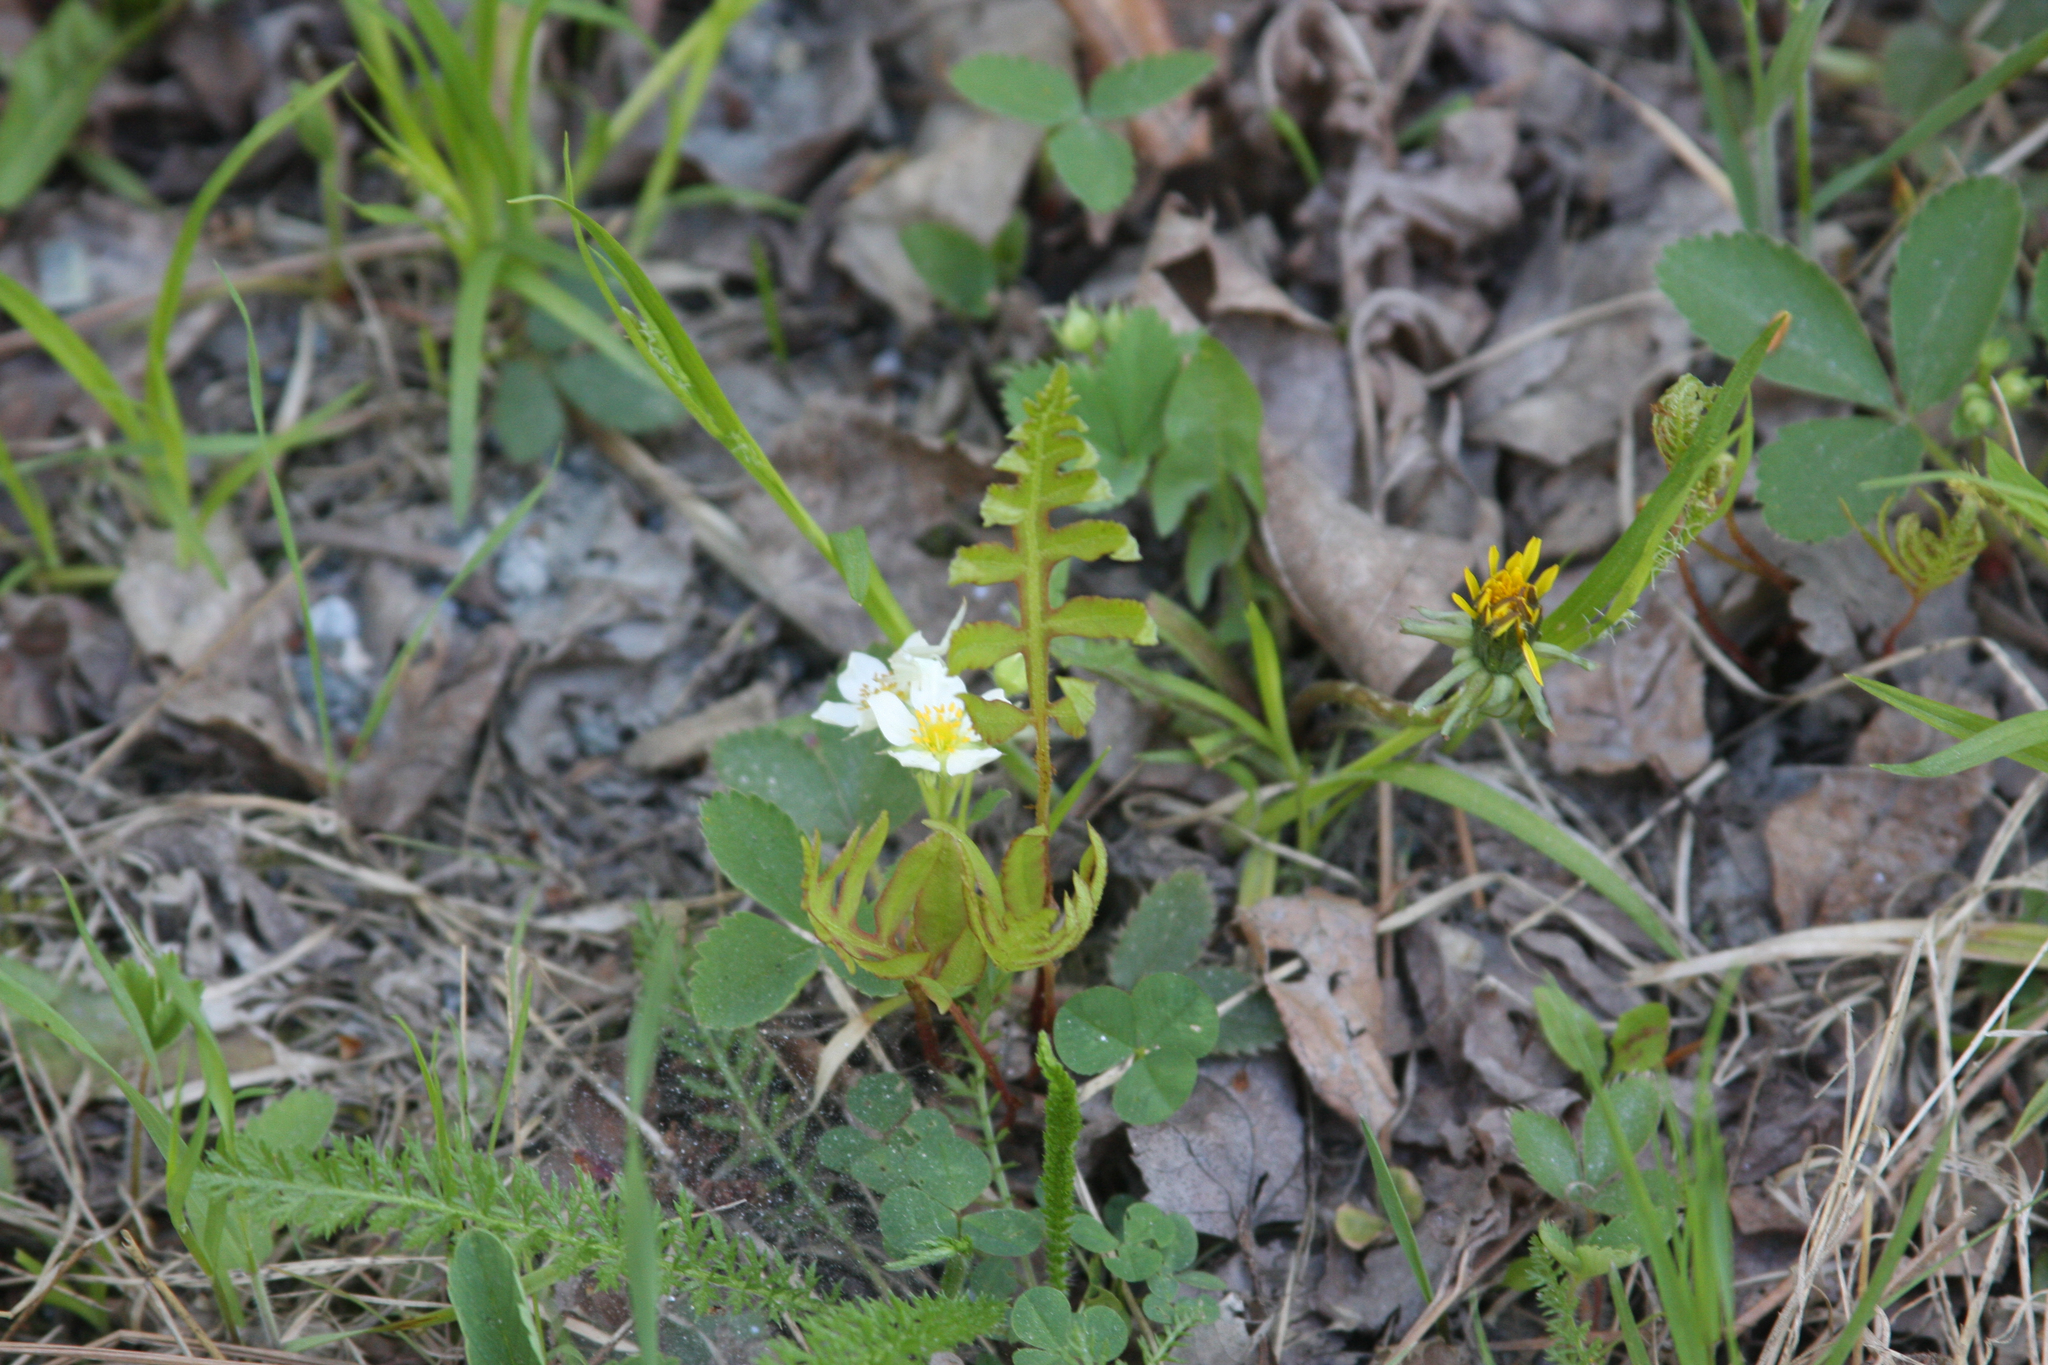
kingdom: Plantae
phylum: Tracheophyta
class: Polypodiopsida
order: Polypodiales
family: Onocleaceae
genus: Onoclea
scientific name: Onoclea sensibilis
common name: Sensitive fern
